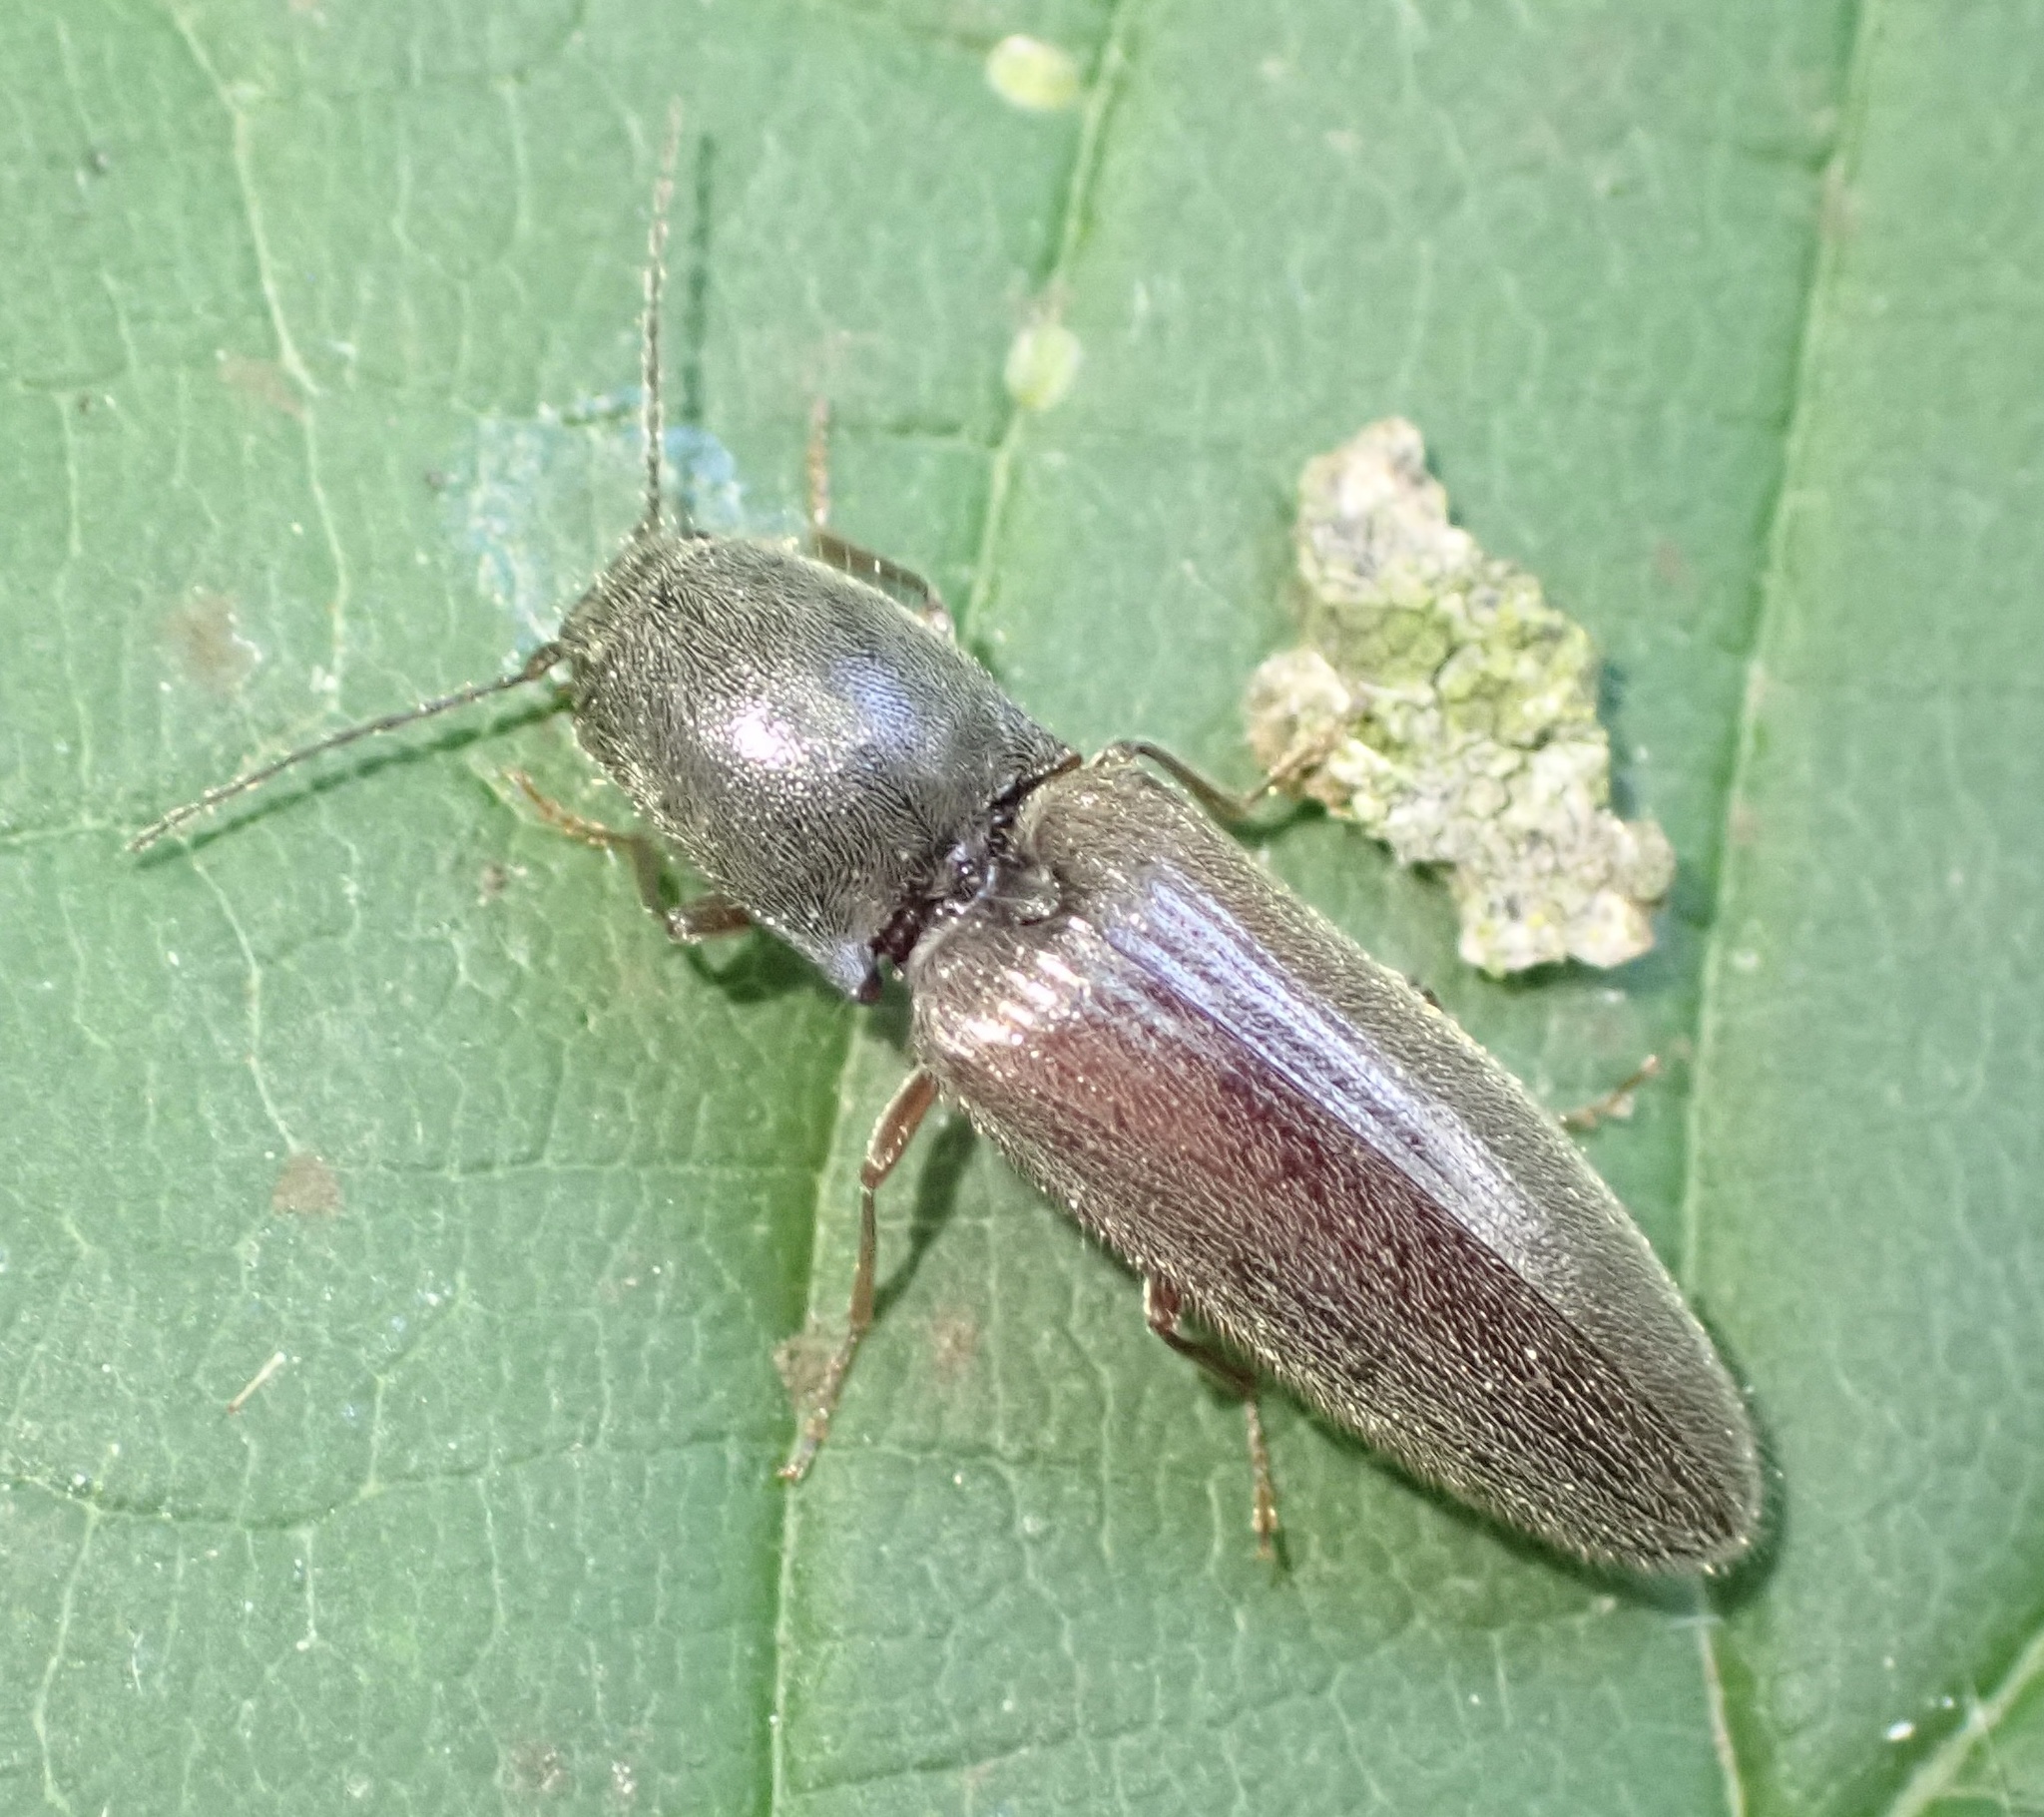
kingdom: Animalia
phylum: Arthropoda
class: Insecta
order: Coleoptera
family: Elateridae
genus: Athous
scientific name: Athous haemorrhoidalis
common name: Red-brown click beetle
